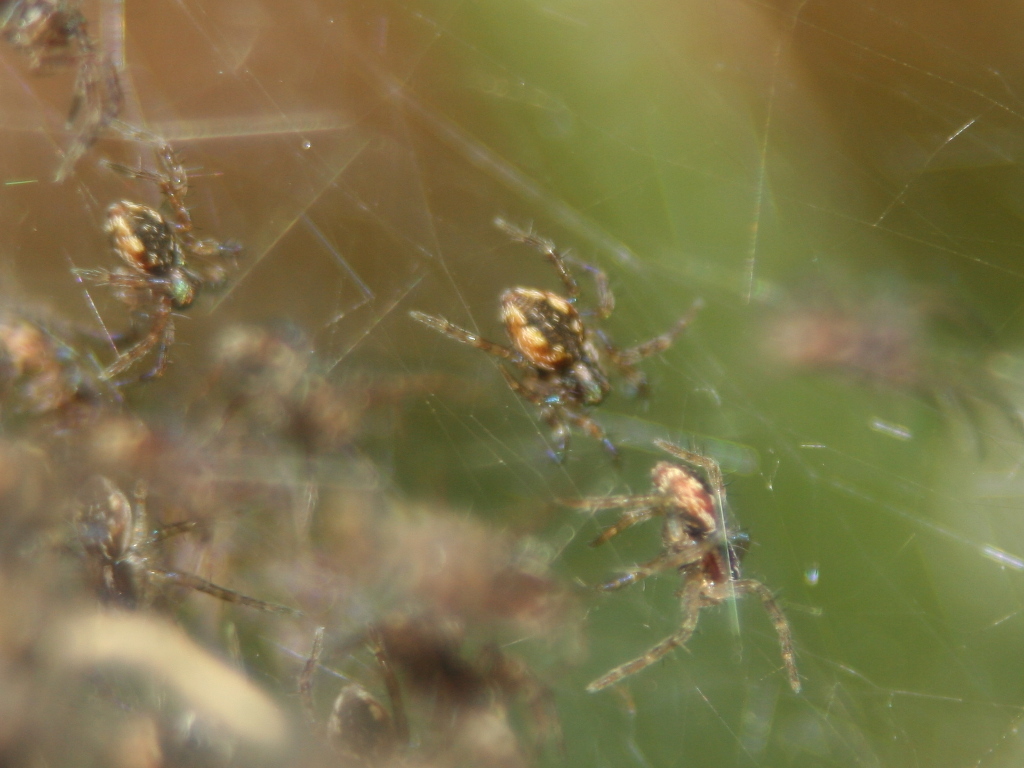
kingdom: Animalia
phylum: Arthropoda
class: Arachnida
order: Araneae
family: Pisauridae
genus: Dolomedes
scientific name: Dolomedes dondalei
